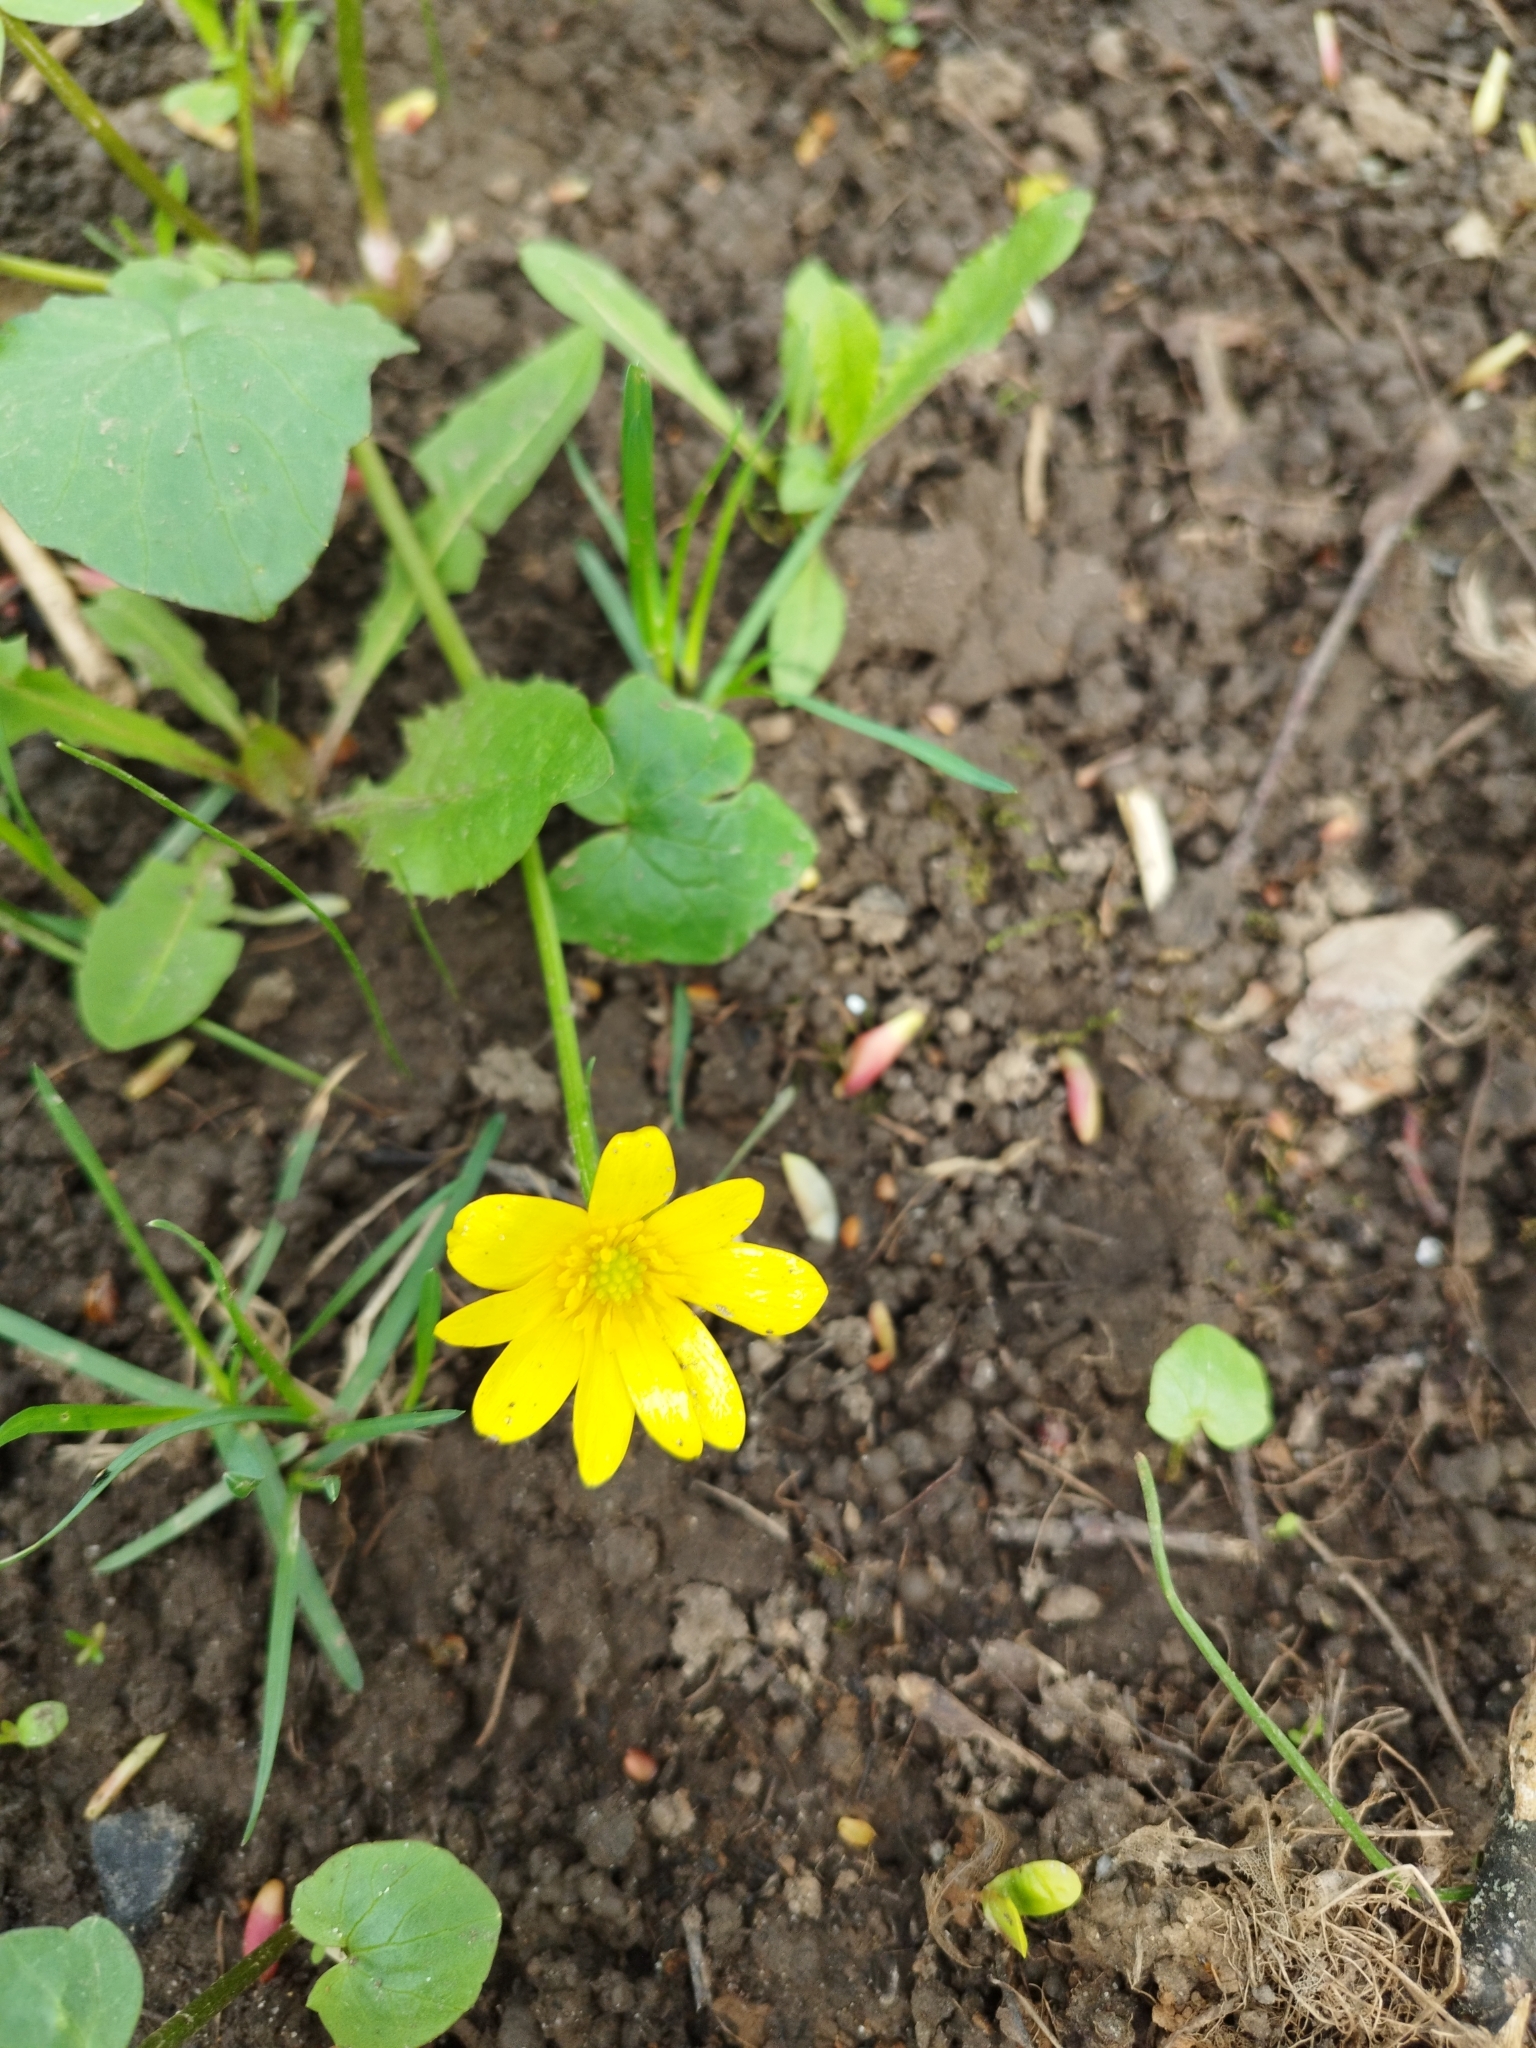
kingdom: Plantae
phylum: Tracheophyta
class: Magnoliopsida
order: Ranunculales
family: Ranunculaceae
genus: Ficaria
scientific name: Ficaria verna
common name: Lesser celandine
